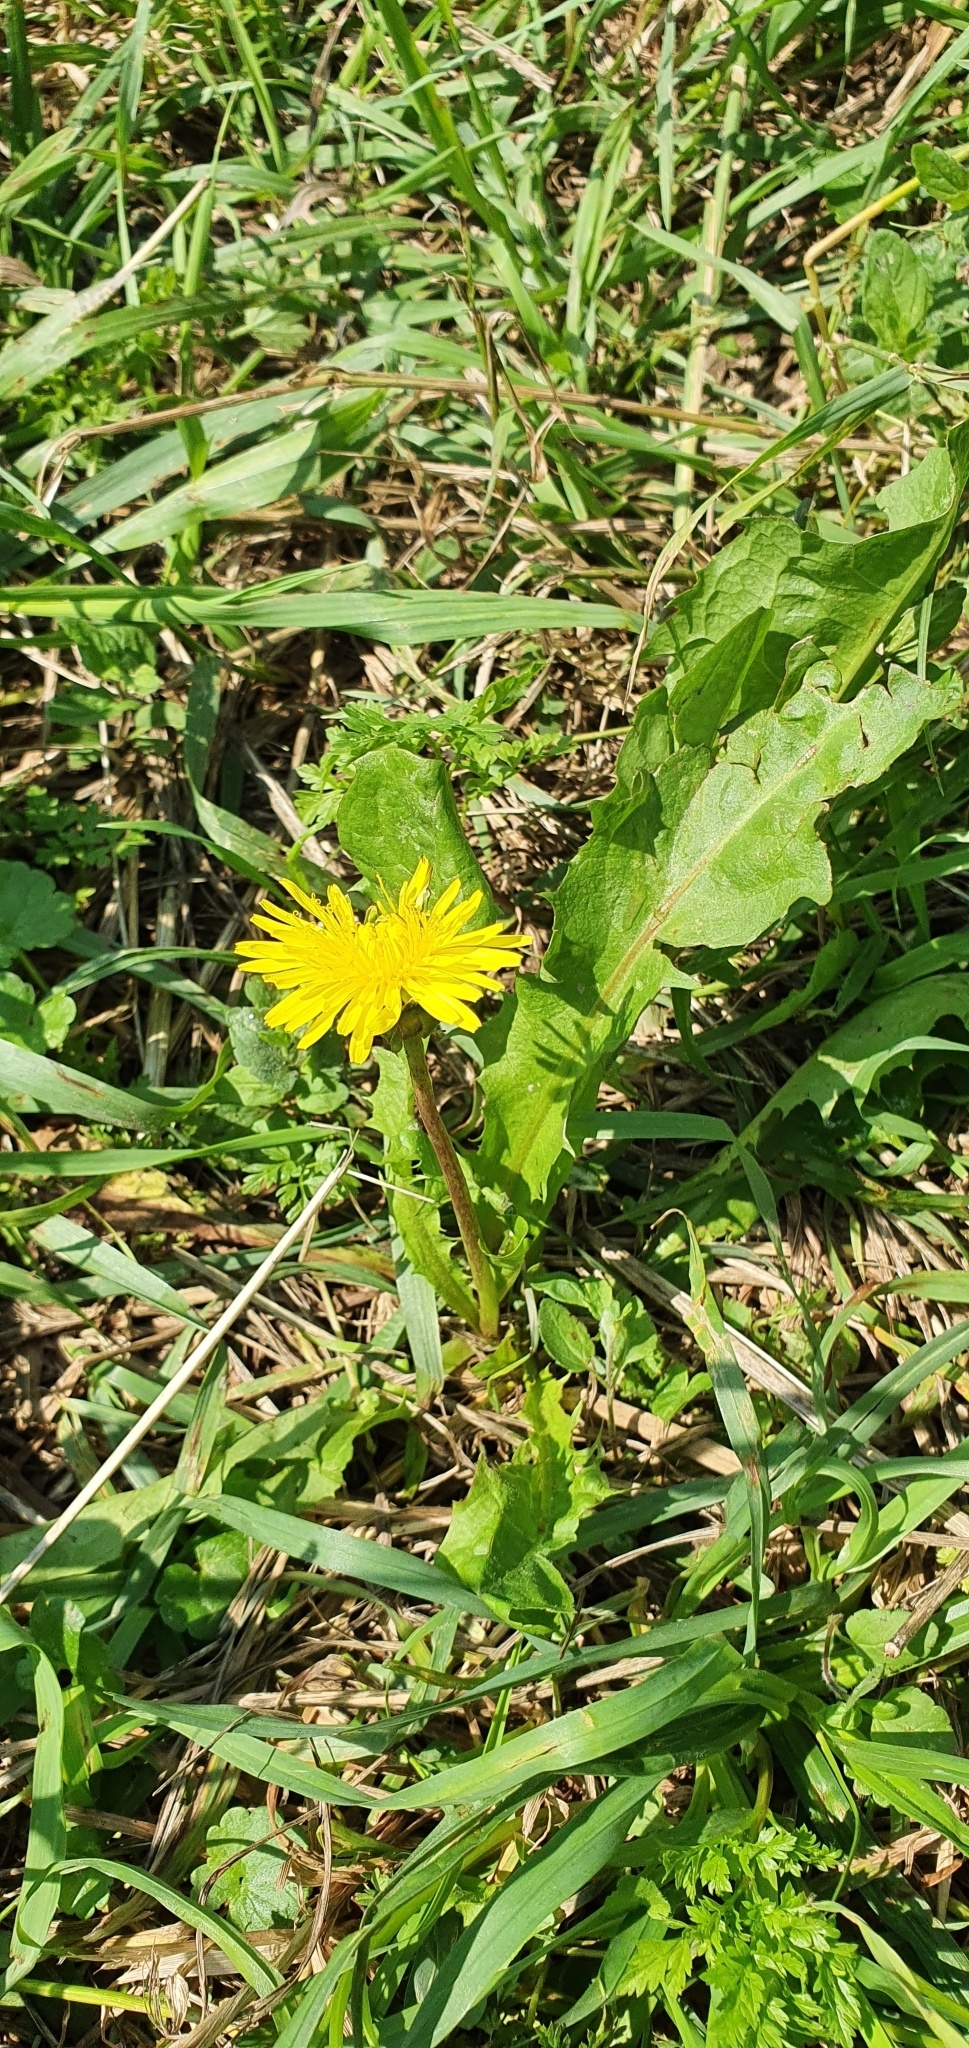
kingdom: Plantae
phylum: Tracheophyta
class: Magnoliopsida
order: Asterales
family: Asteraceae
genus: Taraxacum
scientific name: Taraxacum officinale
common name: Common dandelion
